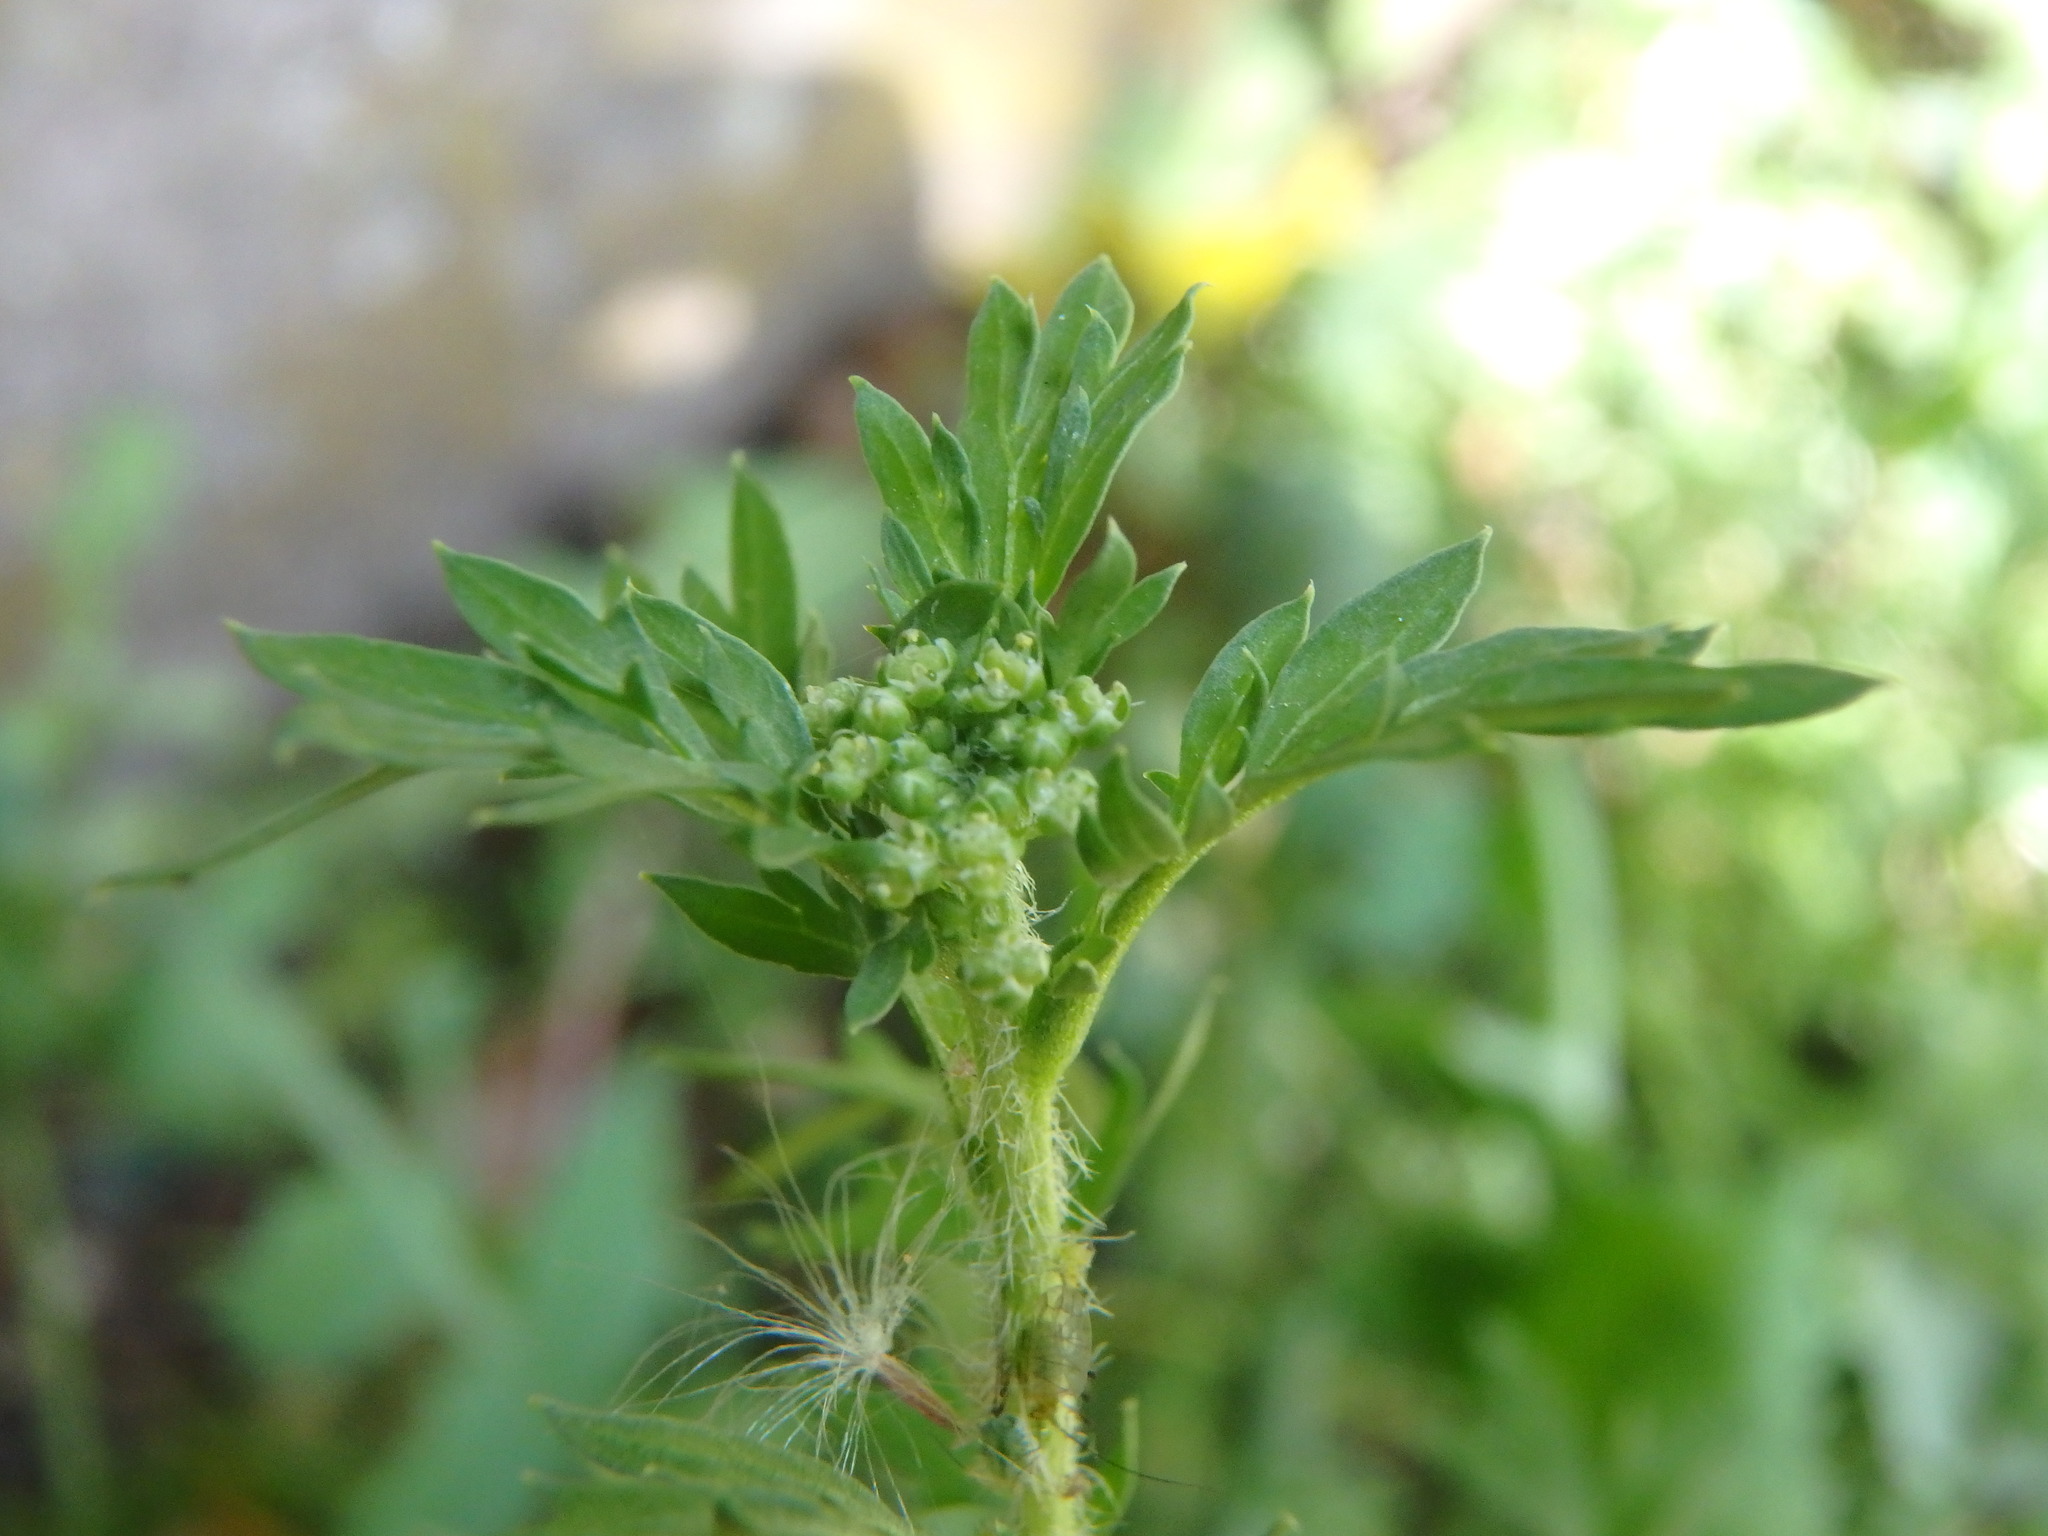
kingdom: Plantae
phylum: Tracheophyta
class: Magnoliopsida
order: Brassicales
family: Brassicaceae
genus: Lepidium
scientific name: Lepidium didymum
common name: Lesser swinecress
